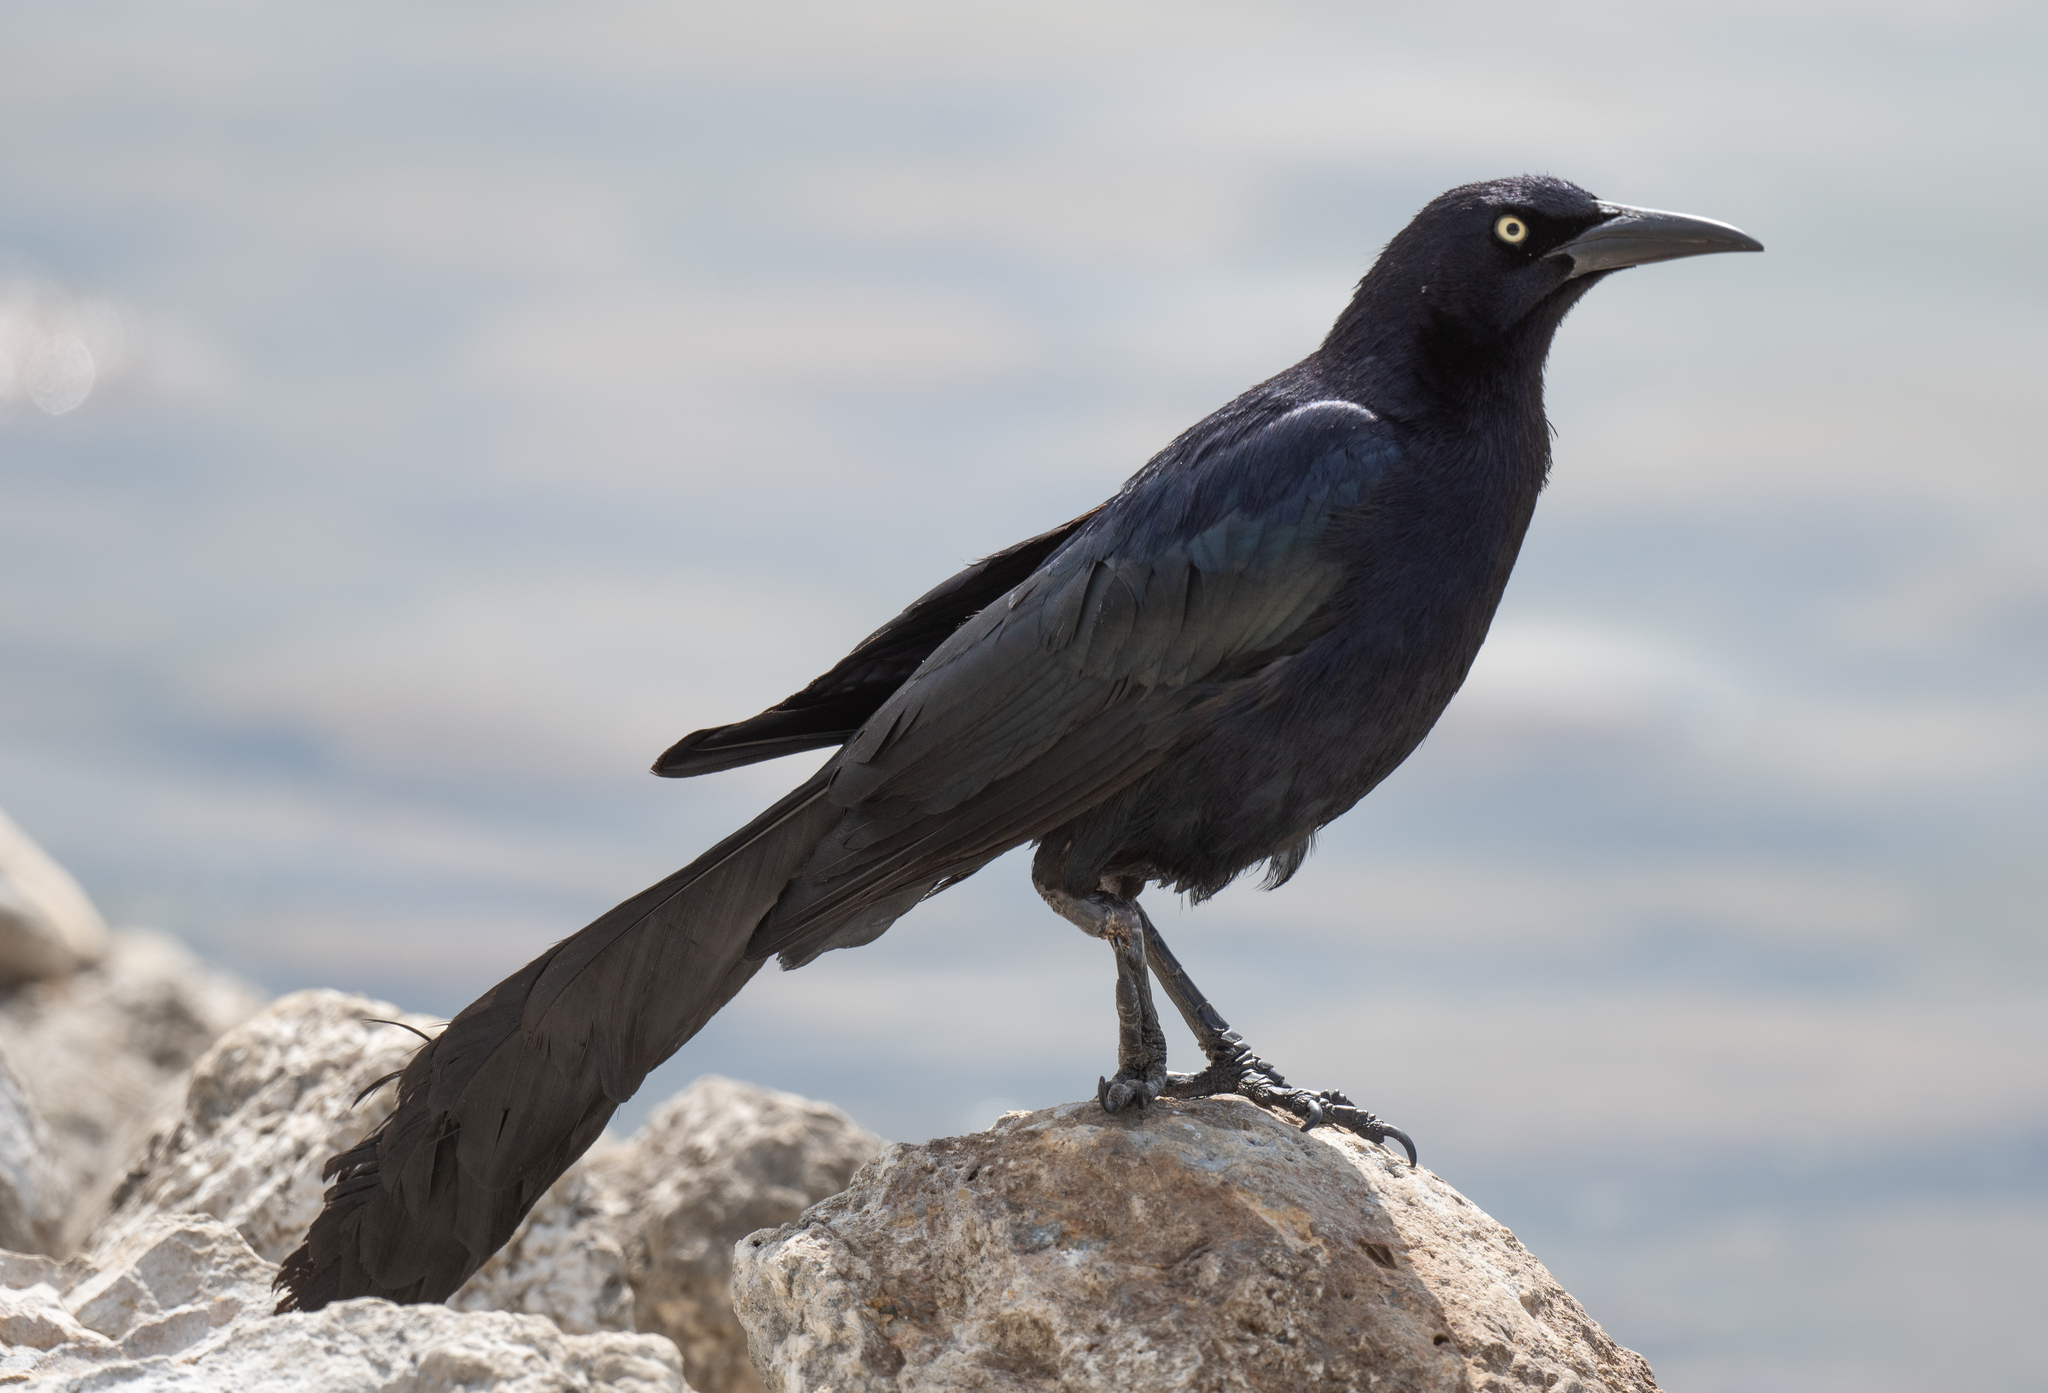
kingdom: Animalia
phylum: Chordata
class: Aves
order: Passeriformes
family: Icteridae
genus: Quiscalus
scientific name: Quiscalus mexicanus
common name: Great-tailed grackle
